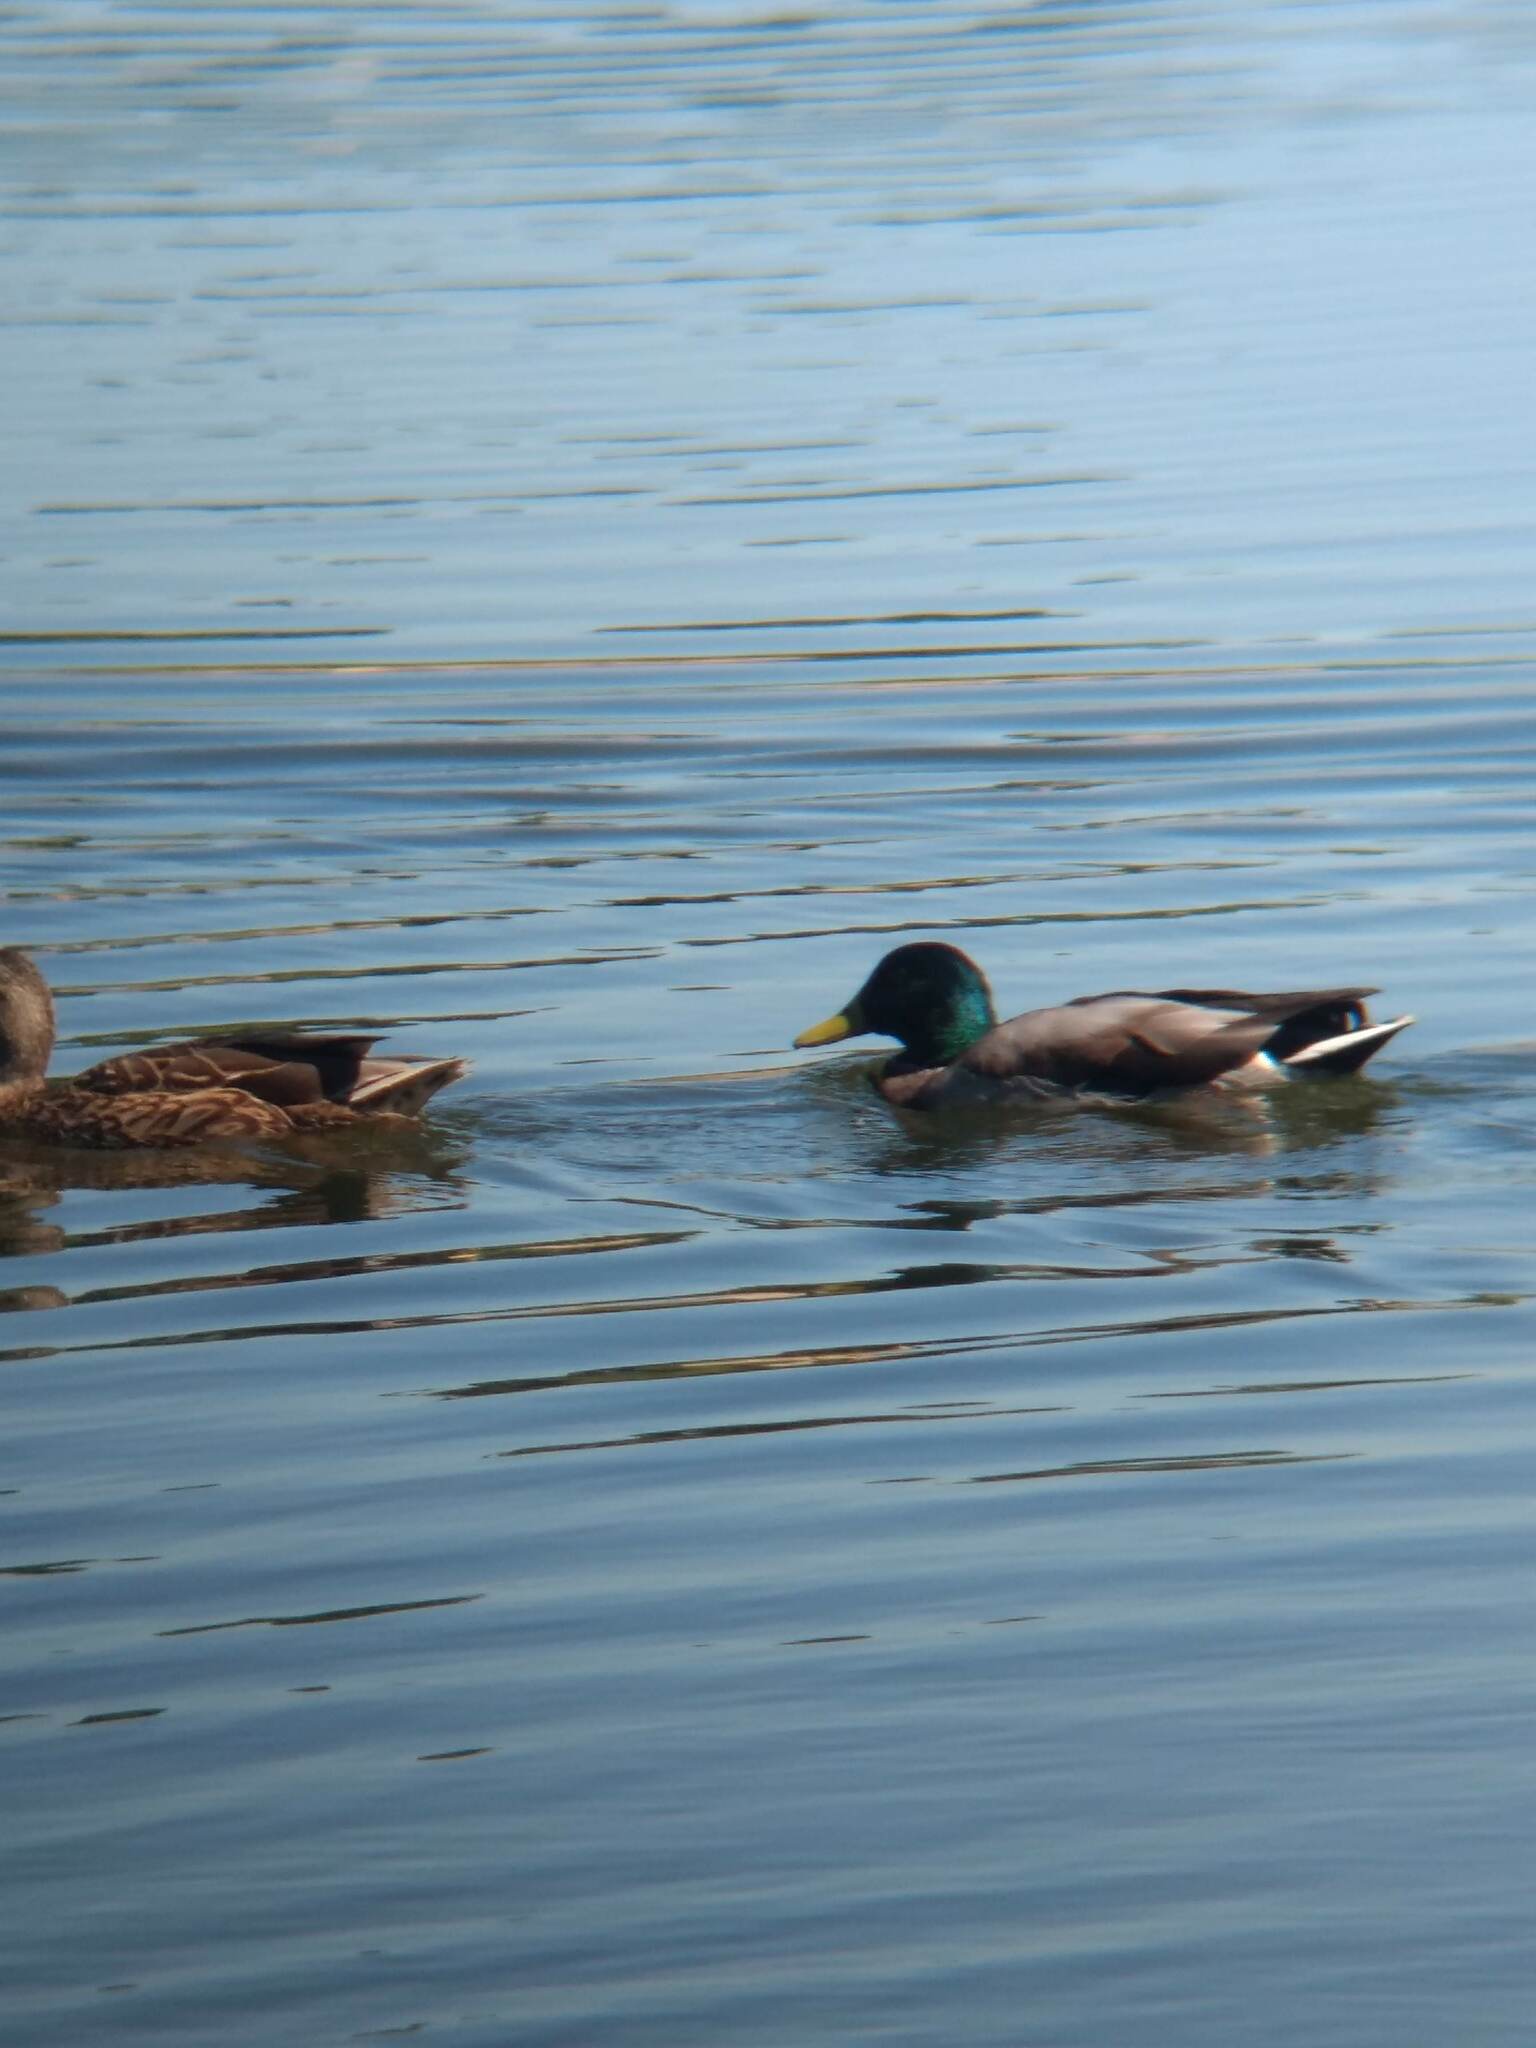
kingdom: Animalia
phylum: Chordata
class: Aves
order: Anseriformes
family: Anatidae
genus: Anas
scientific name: Anas platyrhynchos
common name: Mallard
